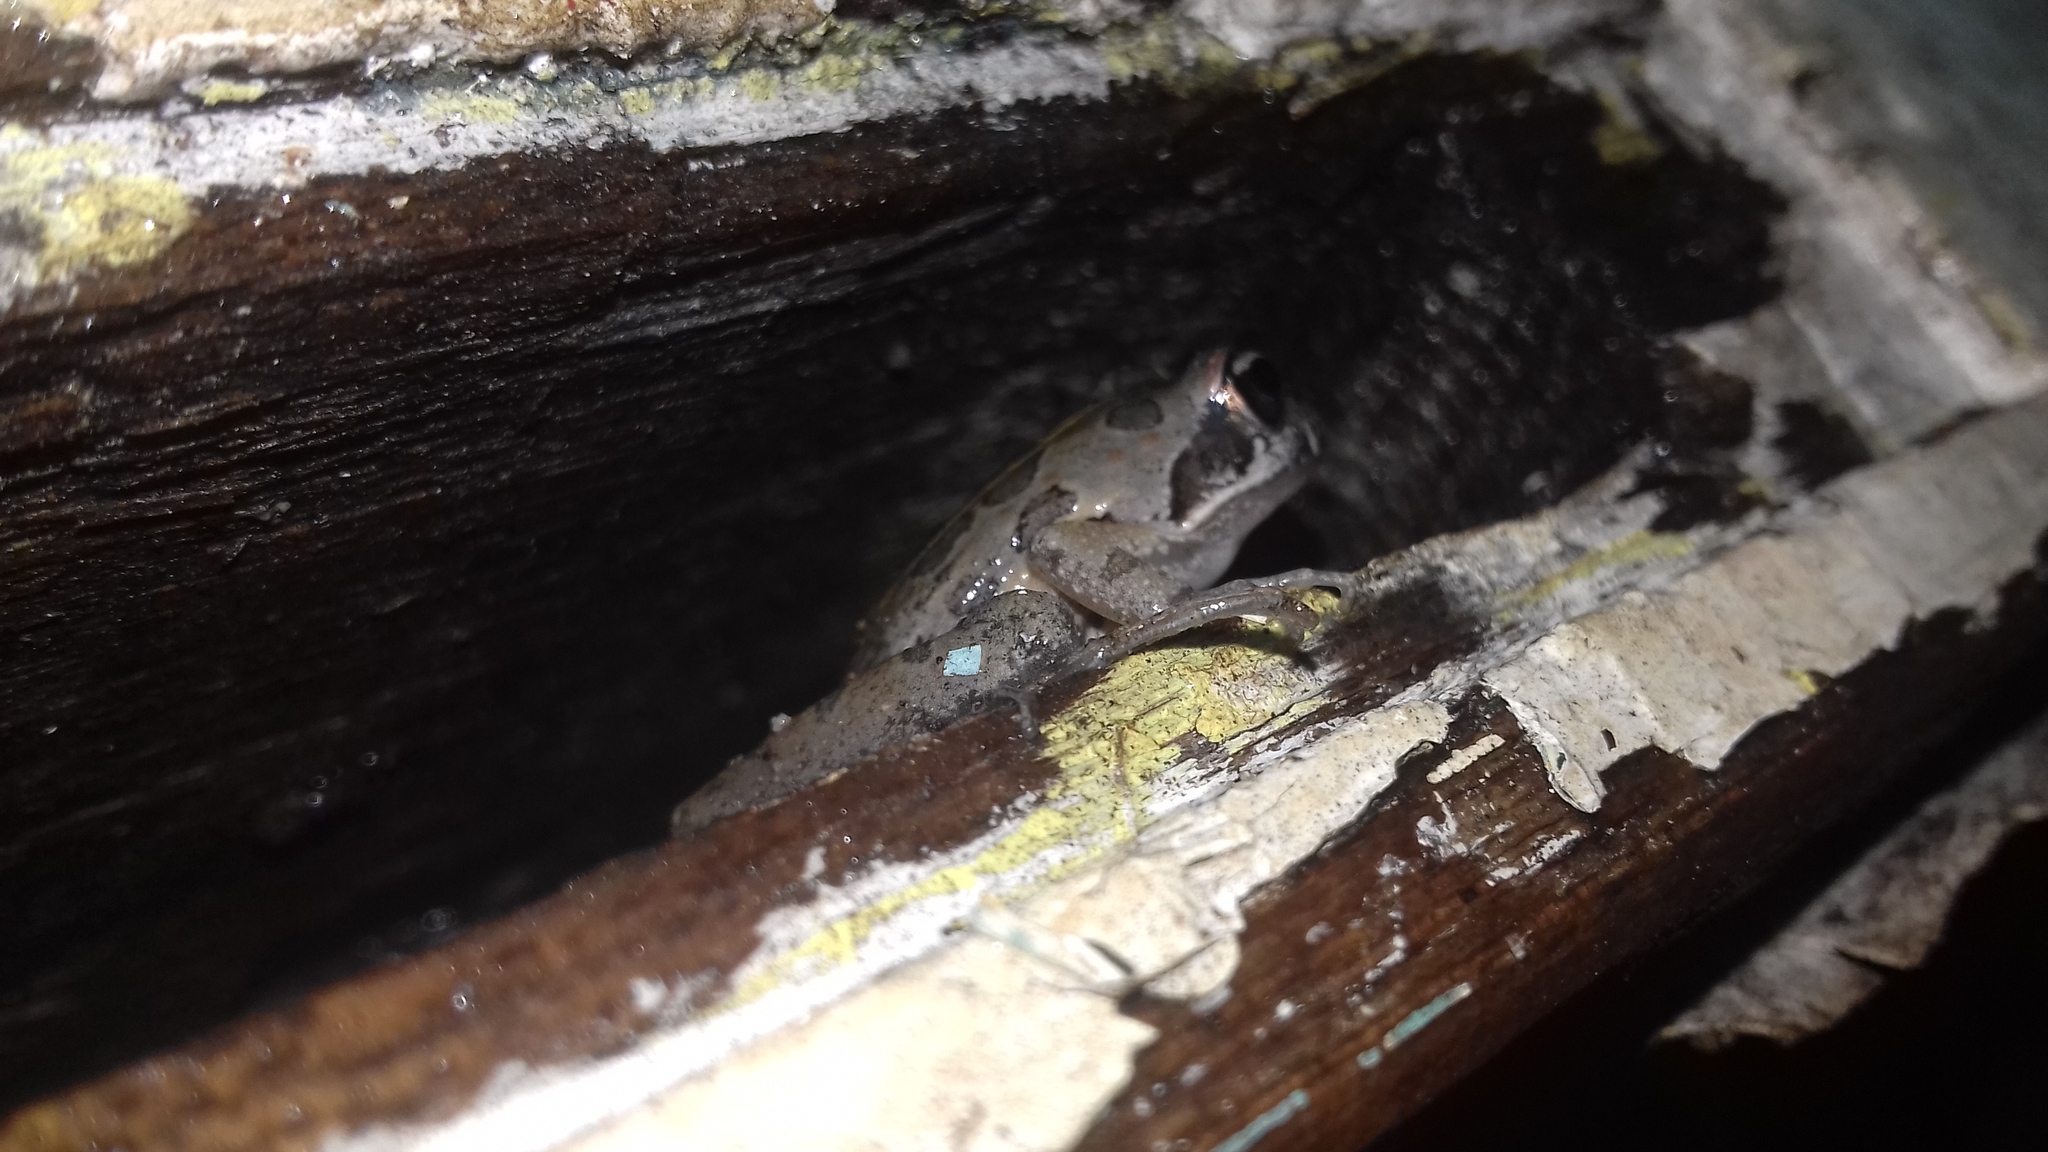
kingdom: Animalia
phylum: Chordata
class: Amphibia
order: Anura
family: Pyxicephalidae
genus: Strongylopus
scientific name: Strongylopus grayii
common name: Gray's stream frog
